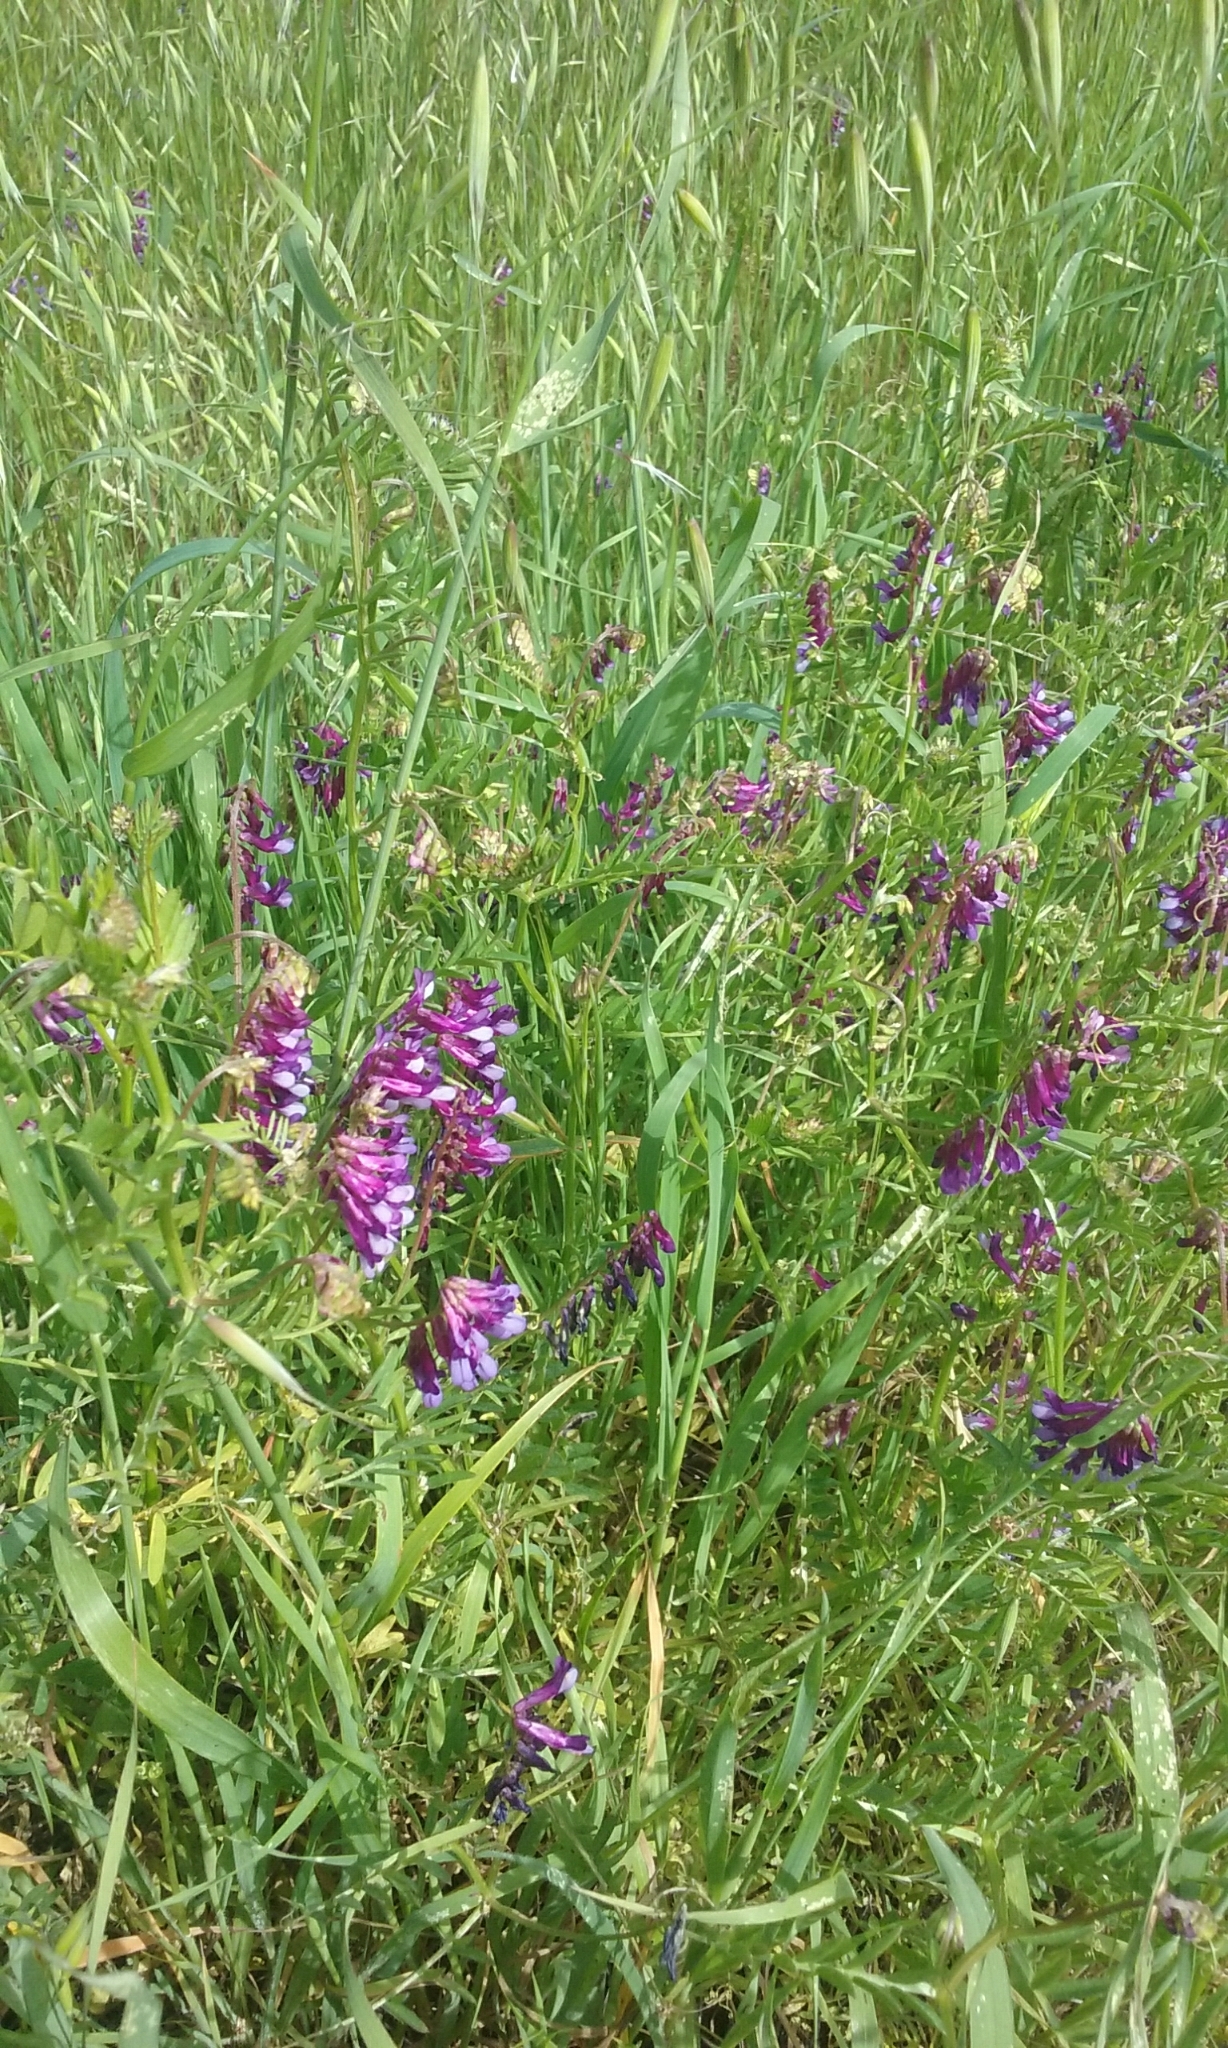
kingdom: Plantae
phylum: Tracheophyta
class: Magnoliopsida
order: Fabales
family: Fabaceae
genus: Vicia
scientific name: Vicia villosa
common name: Fodder vetch
